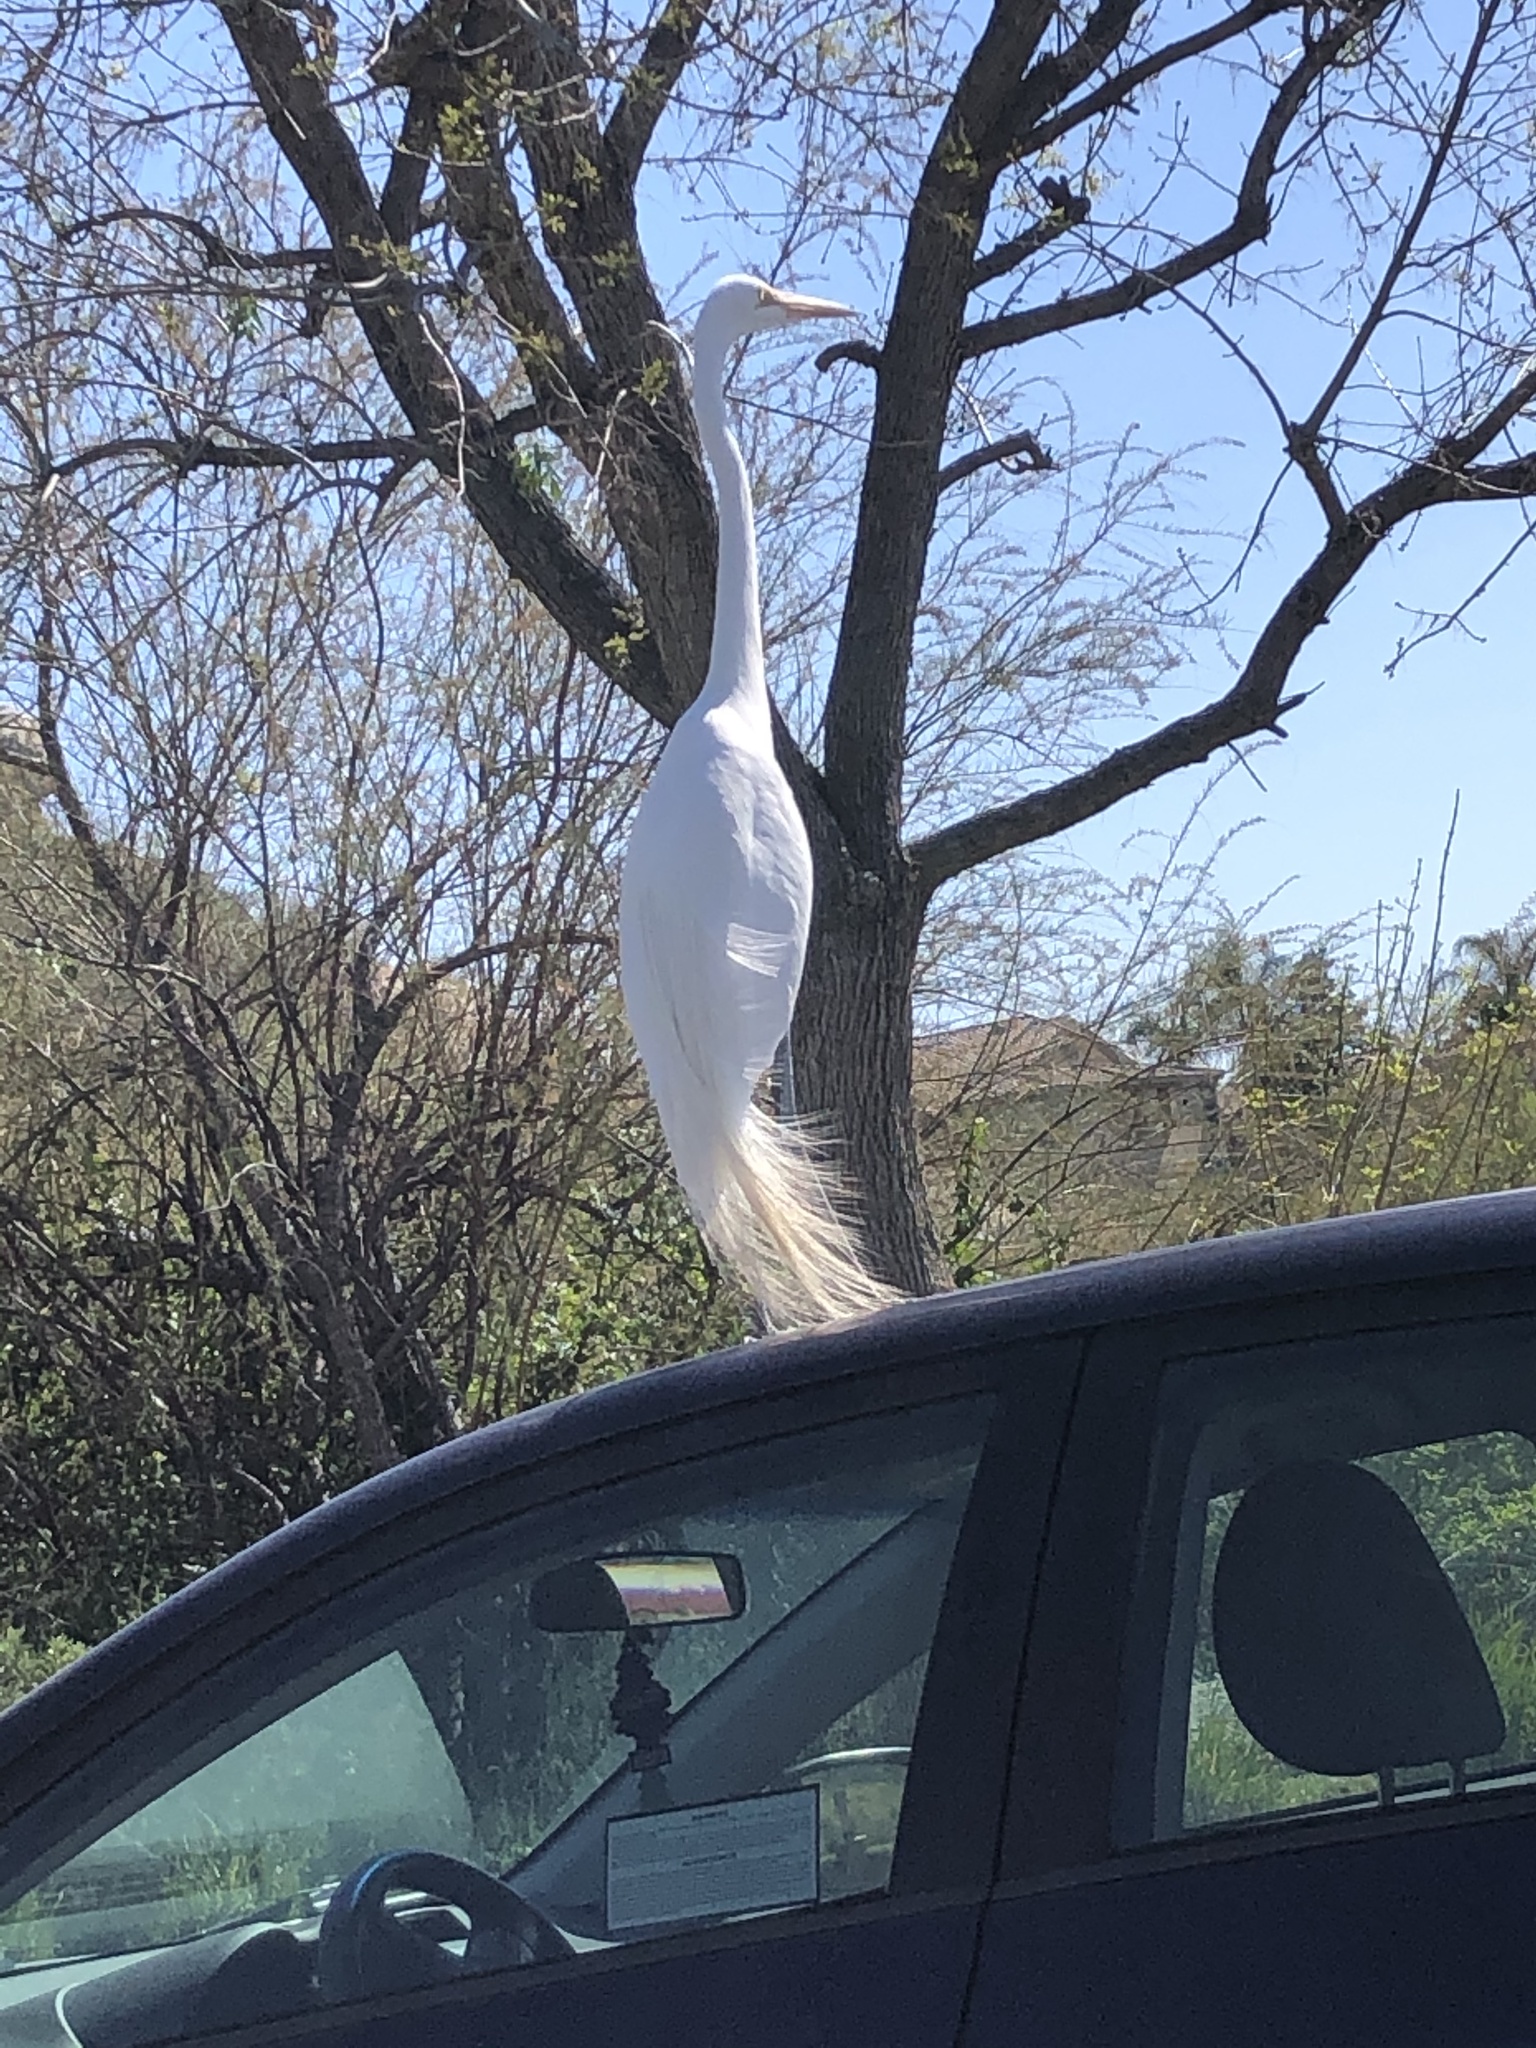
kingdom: Animalia
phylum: Chordata
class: Aves
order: Pelecaniformes
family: Ardeidae
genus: Ardea
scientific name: Ardea alba
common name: Great egret
